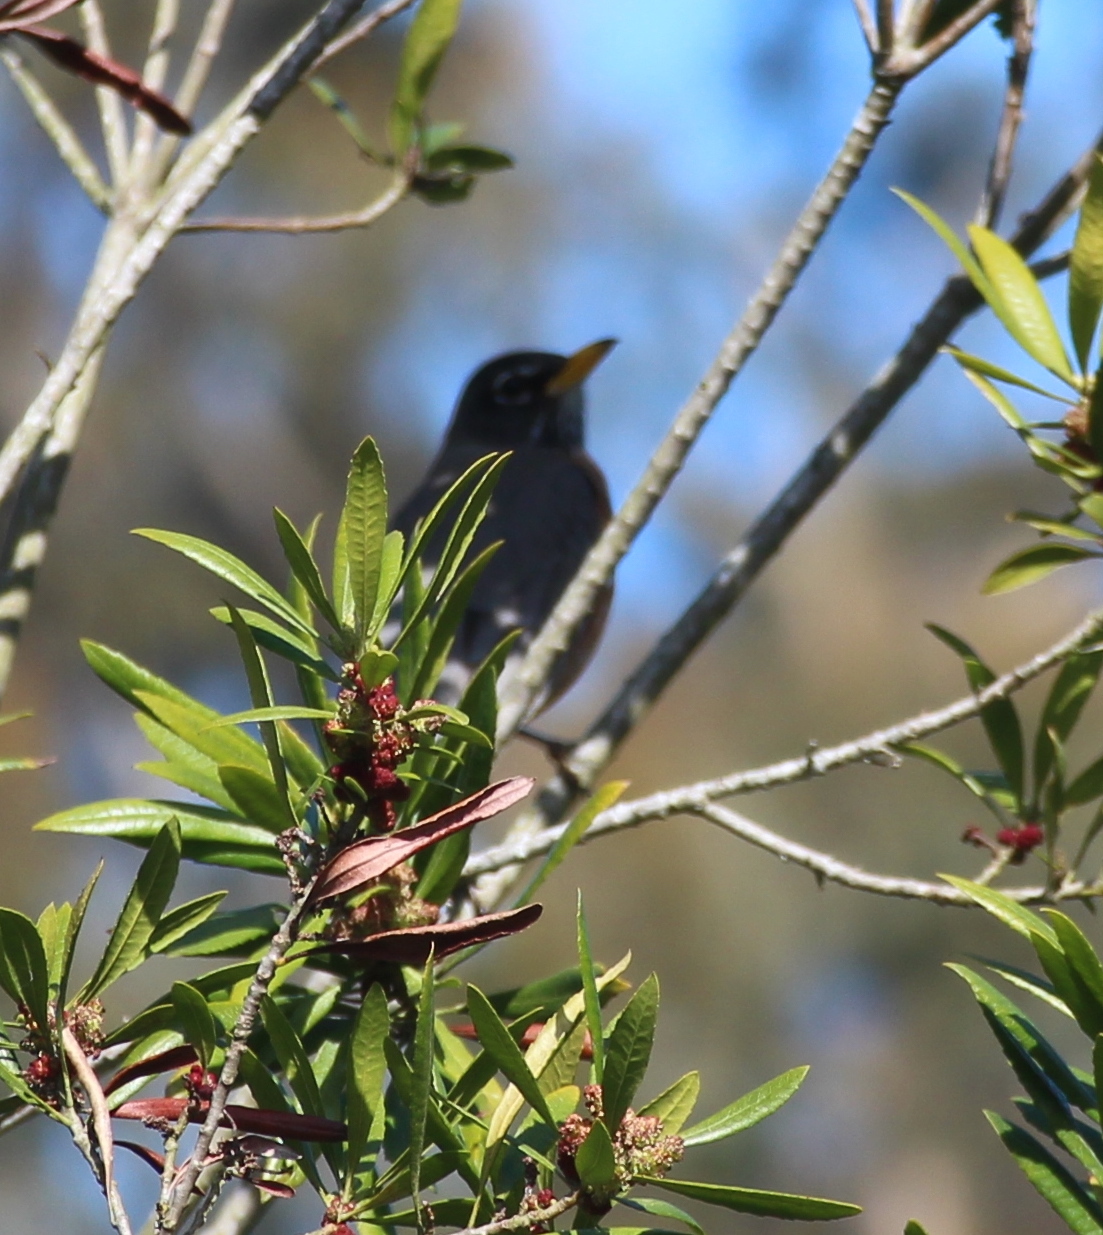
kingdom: Animalia
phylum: Chordata
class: Aves
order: Passeriformes
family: Turdidae
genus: Turdus
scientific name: Turdus migratorius
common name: American robin
